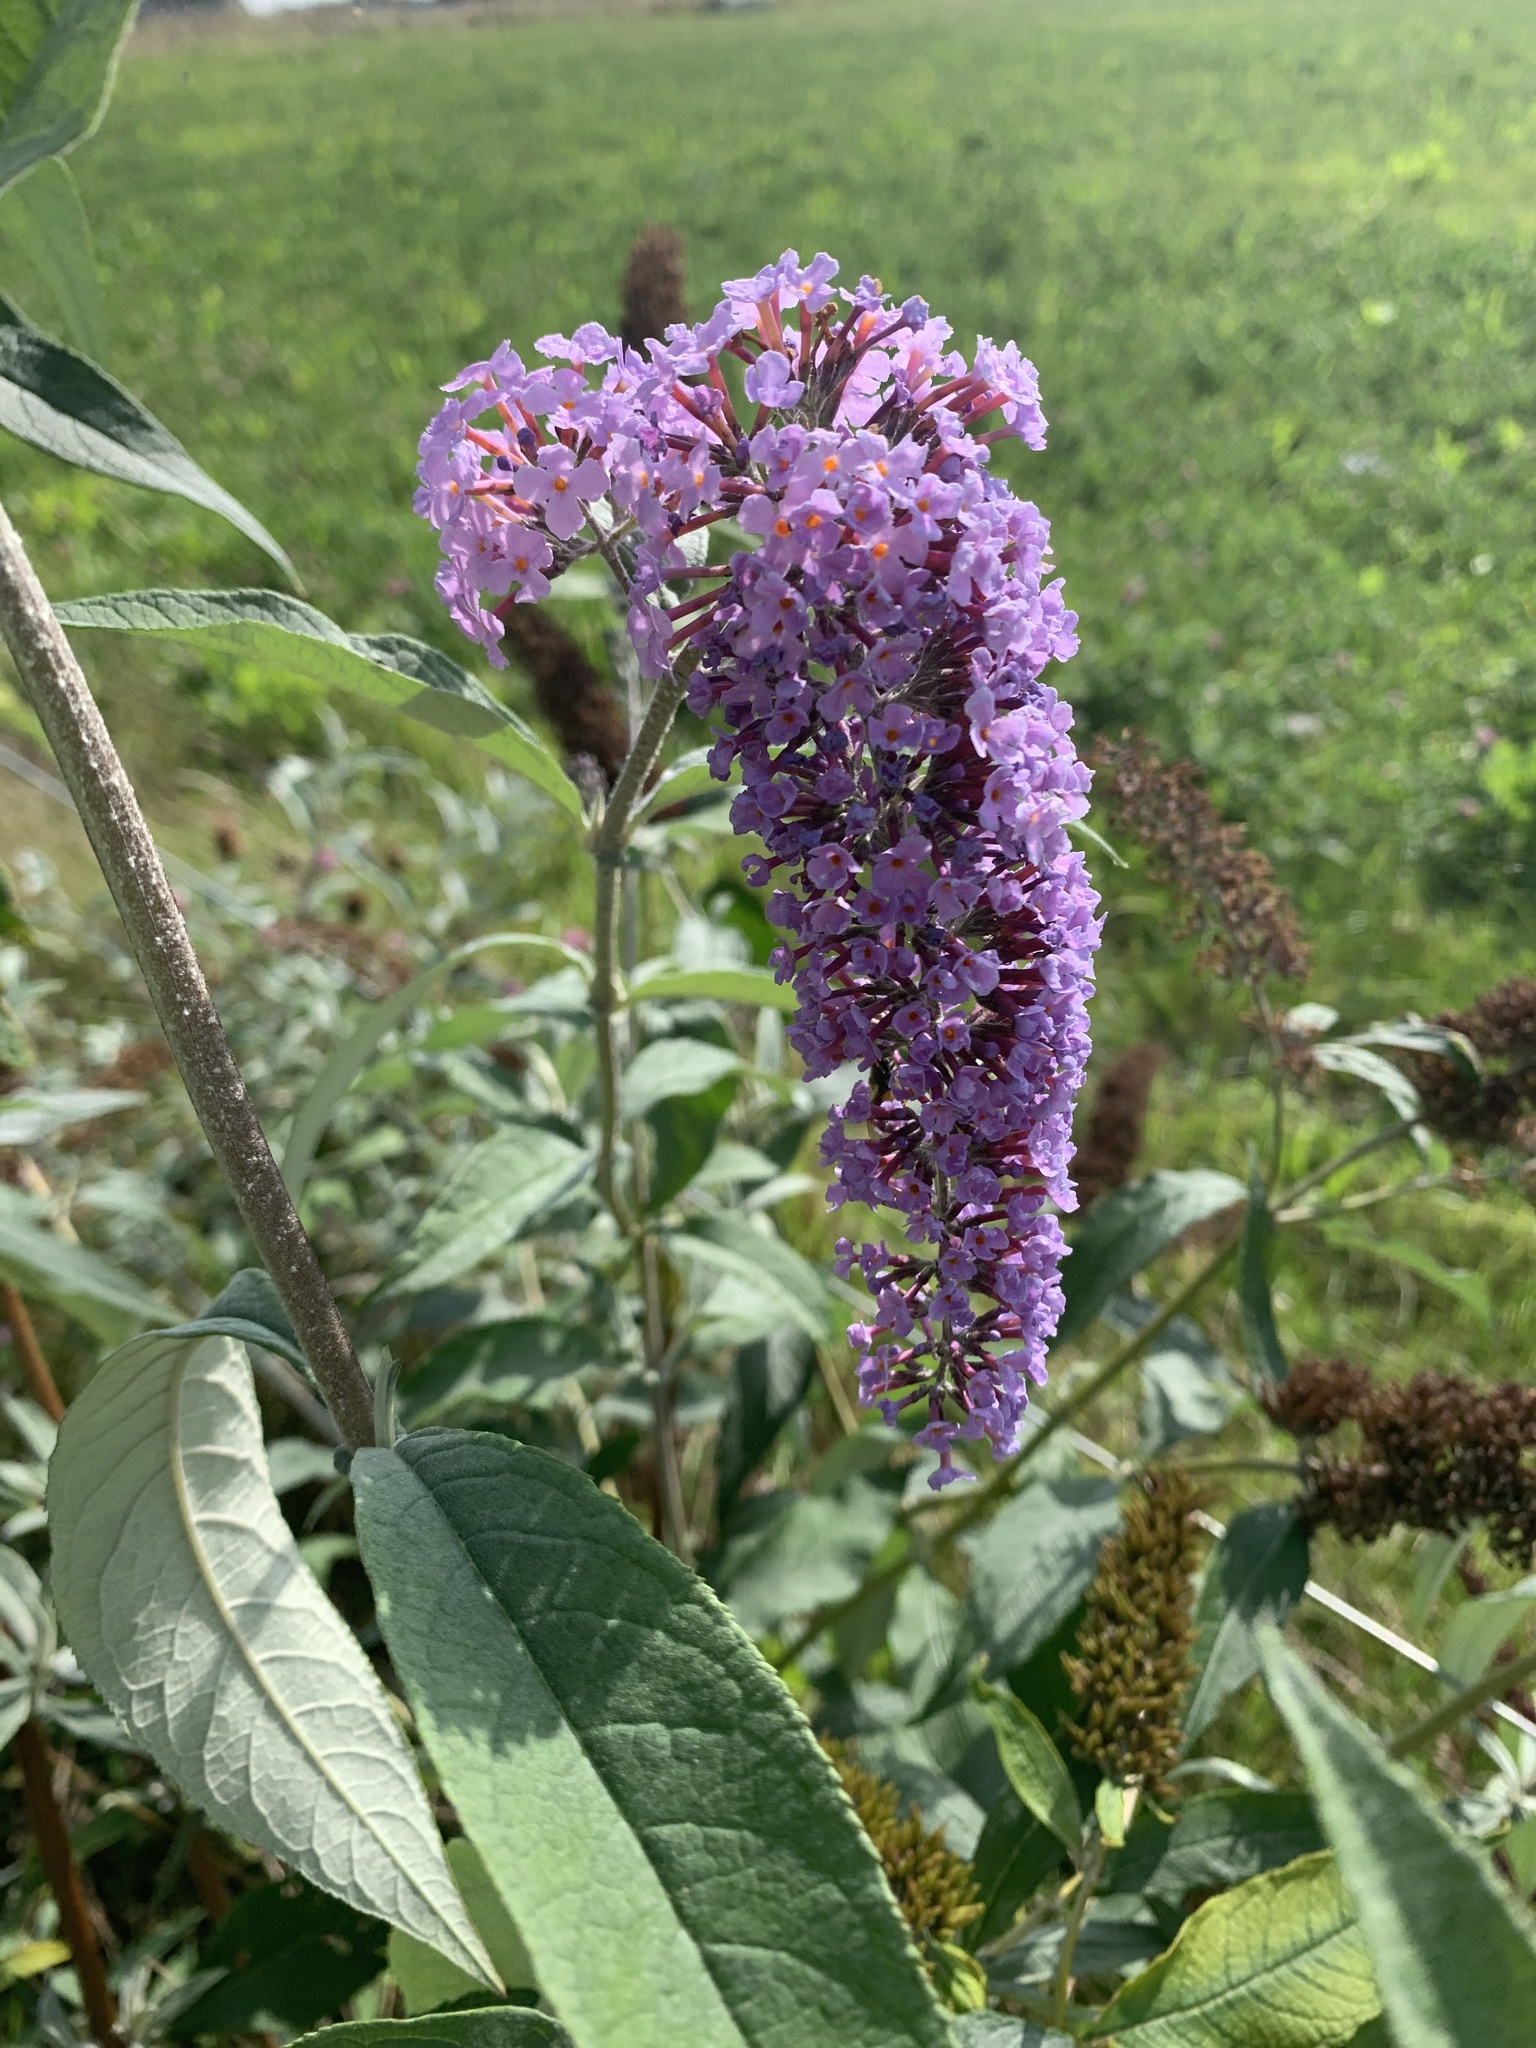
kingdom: Plantae
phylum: Tracheophyta
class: Magnoliopsida
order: Lamiales
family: Scrophulariaceae
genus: Buddleja
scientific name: Buddleja davidii
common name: Butterfly-bush
